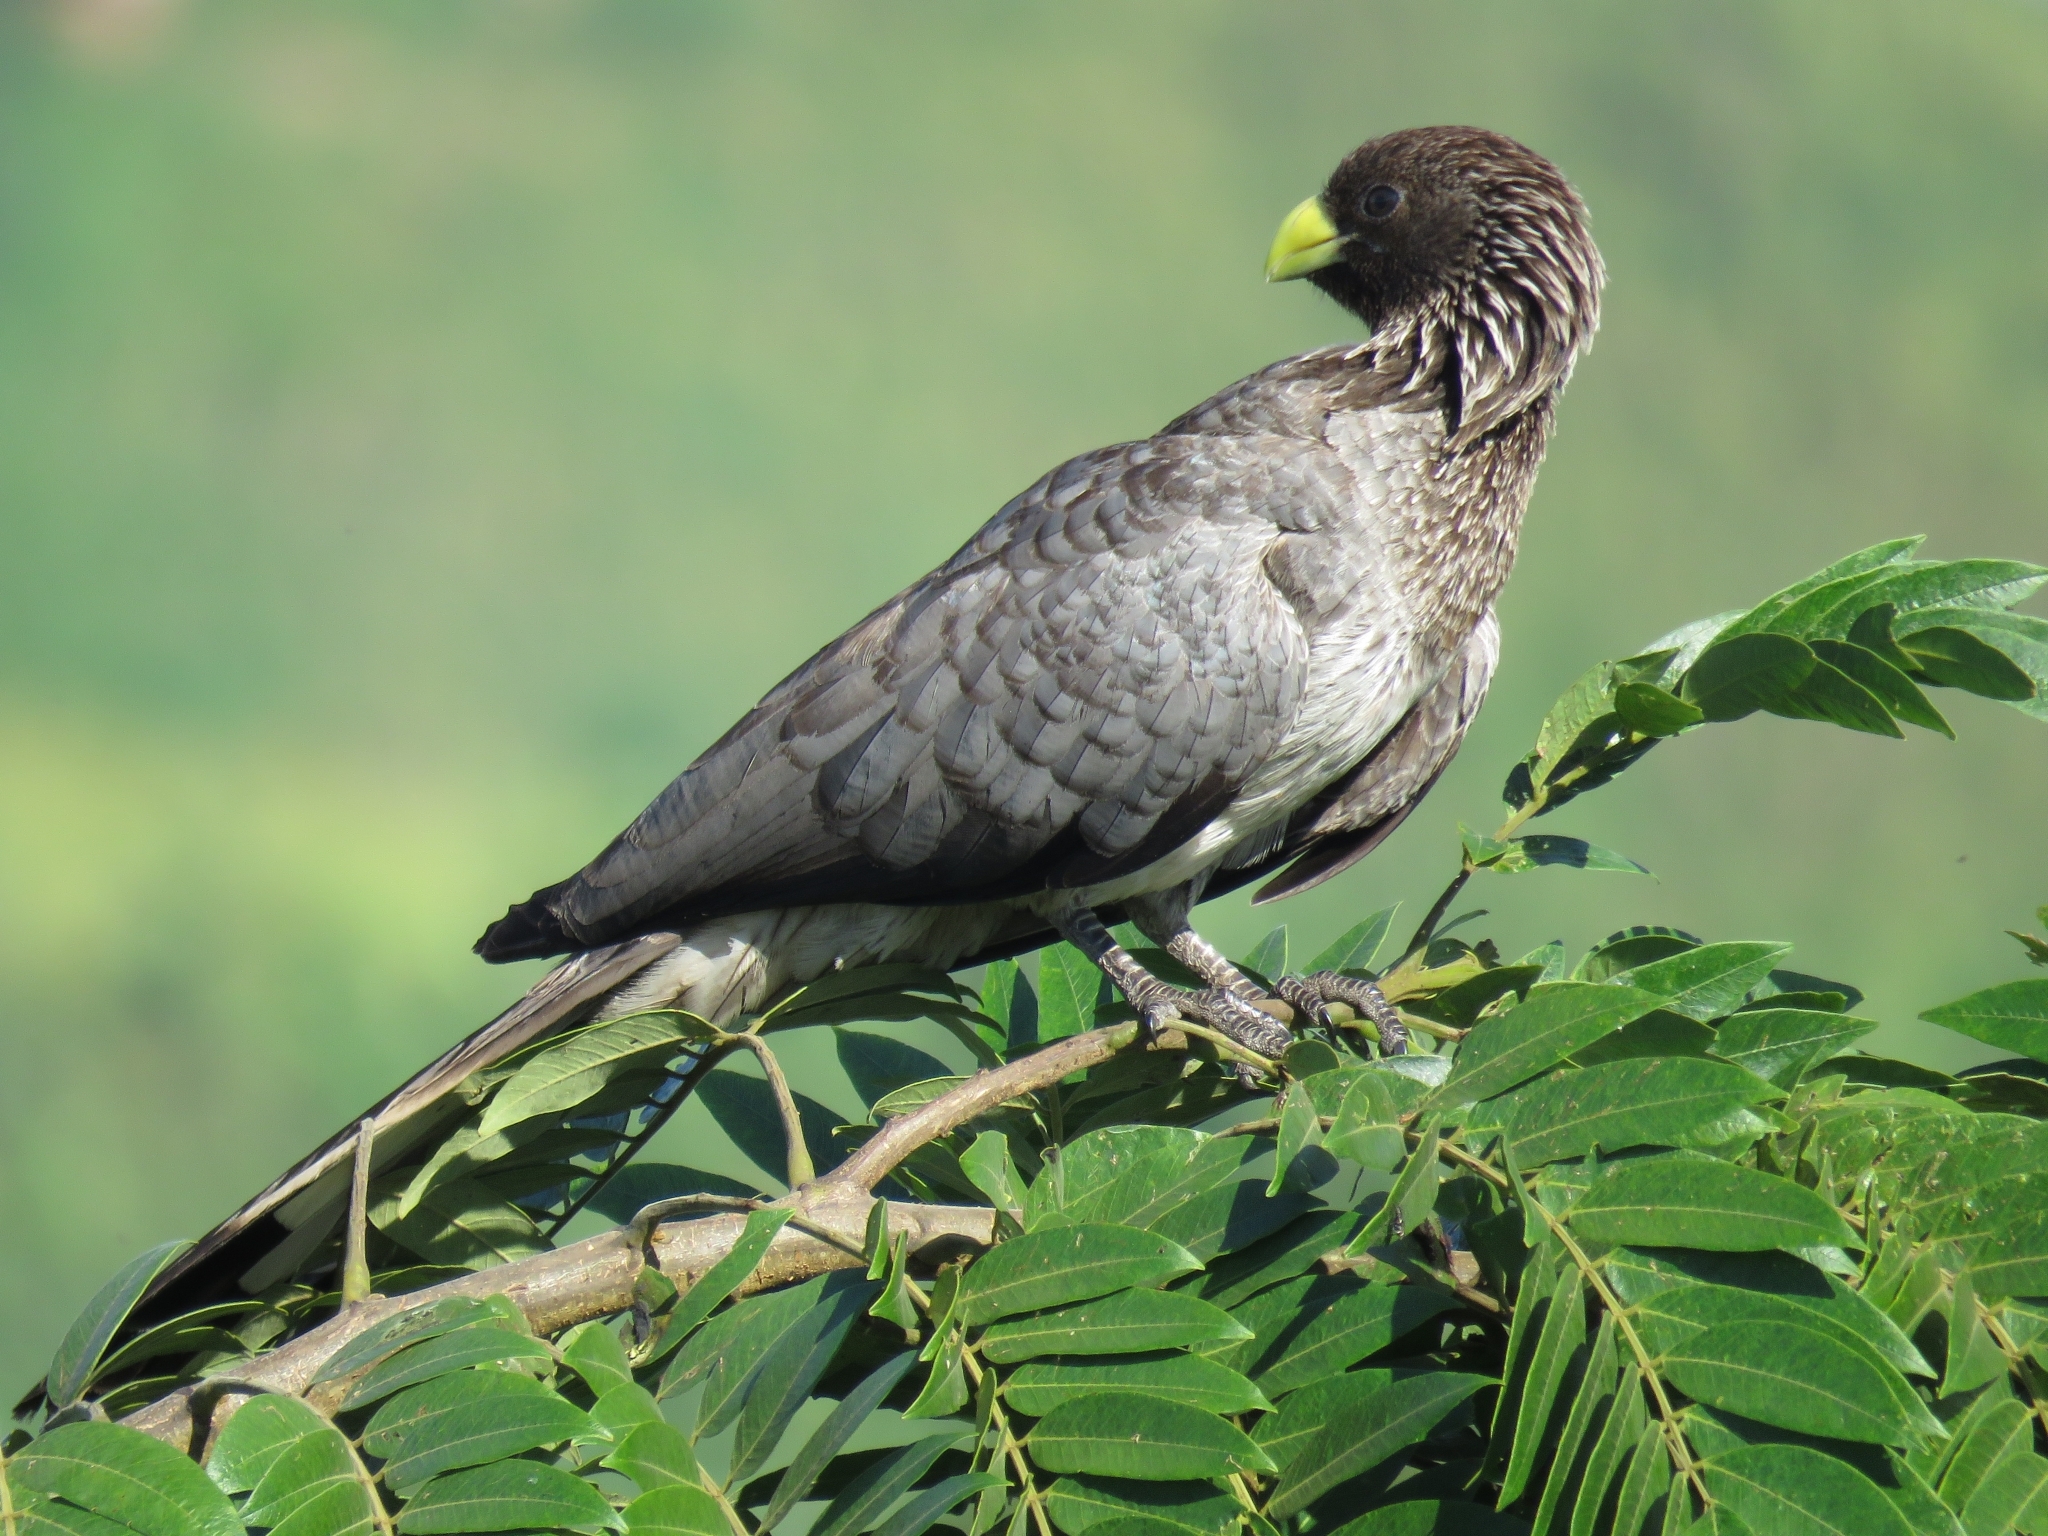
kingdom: Animalia
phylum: Chordata
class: Aves
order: Musophagiformes
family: Musophagidae
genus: Crinifer
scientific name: Crinifer zonurus
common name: Eastern plantain-eater
